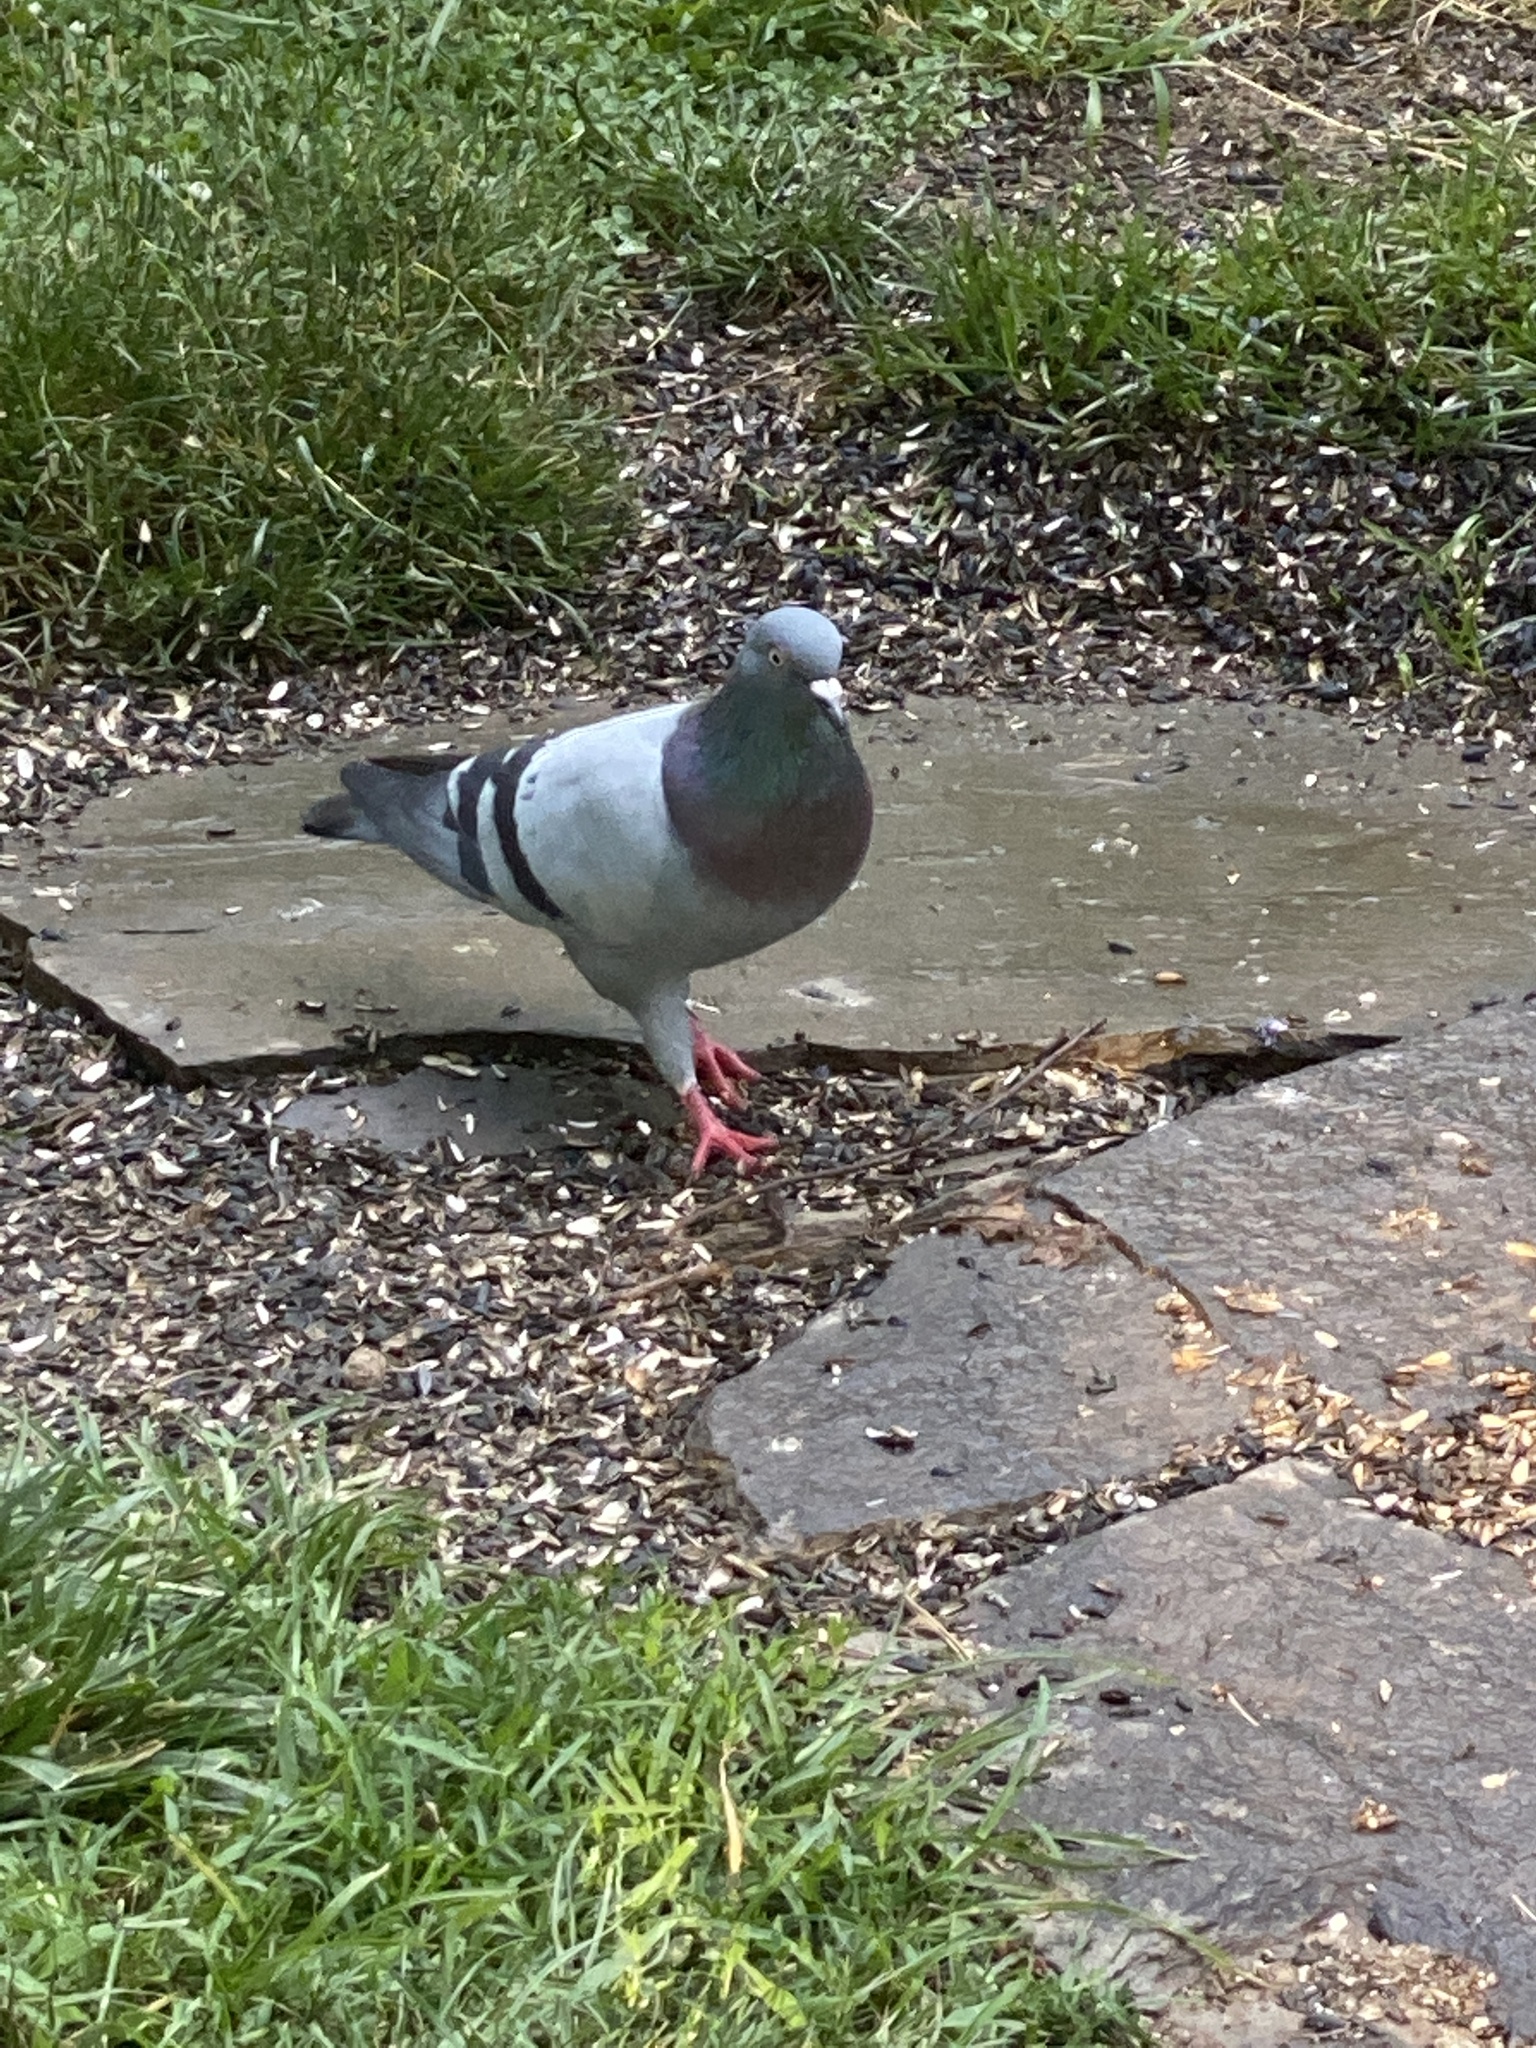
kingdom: Animalia
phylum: Chordata
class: Aves
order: Columbiformes
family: Columbidae
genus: Columba
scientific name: Columba livia
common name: Rock pigeon
